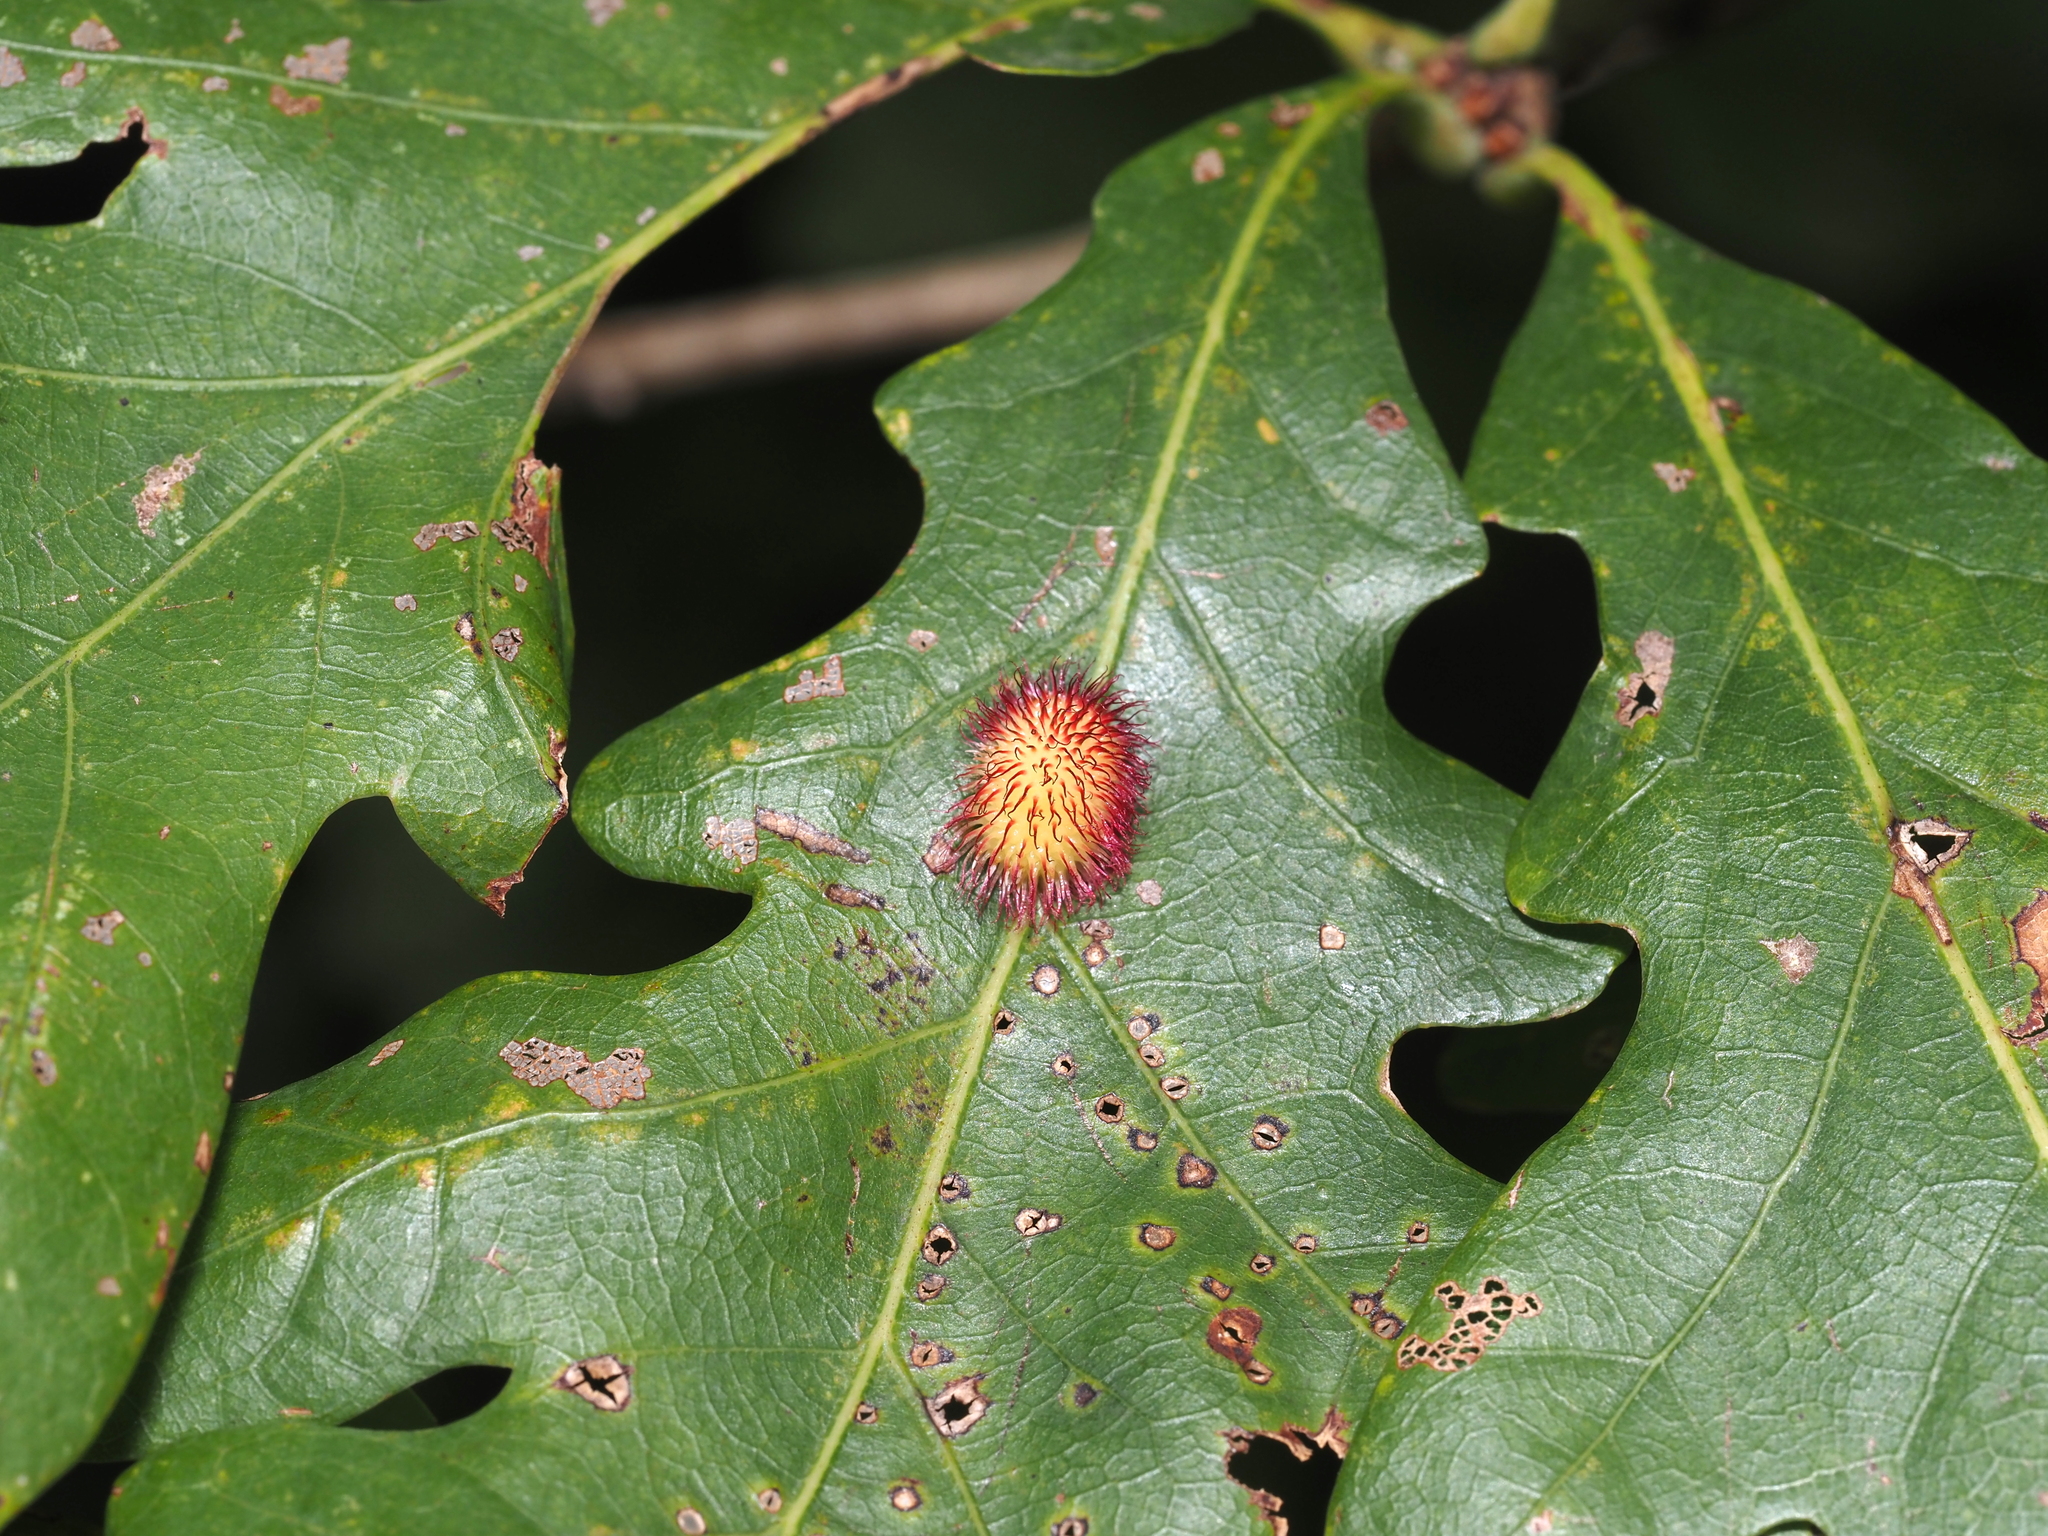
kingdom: Animalia
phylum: Arthropoda
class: Insecta
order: Hymenoptera
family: Cynipidae
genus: Acraspis
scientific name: Acraspis erinacei
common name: Hedgehog gall wasp
